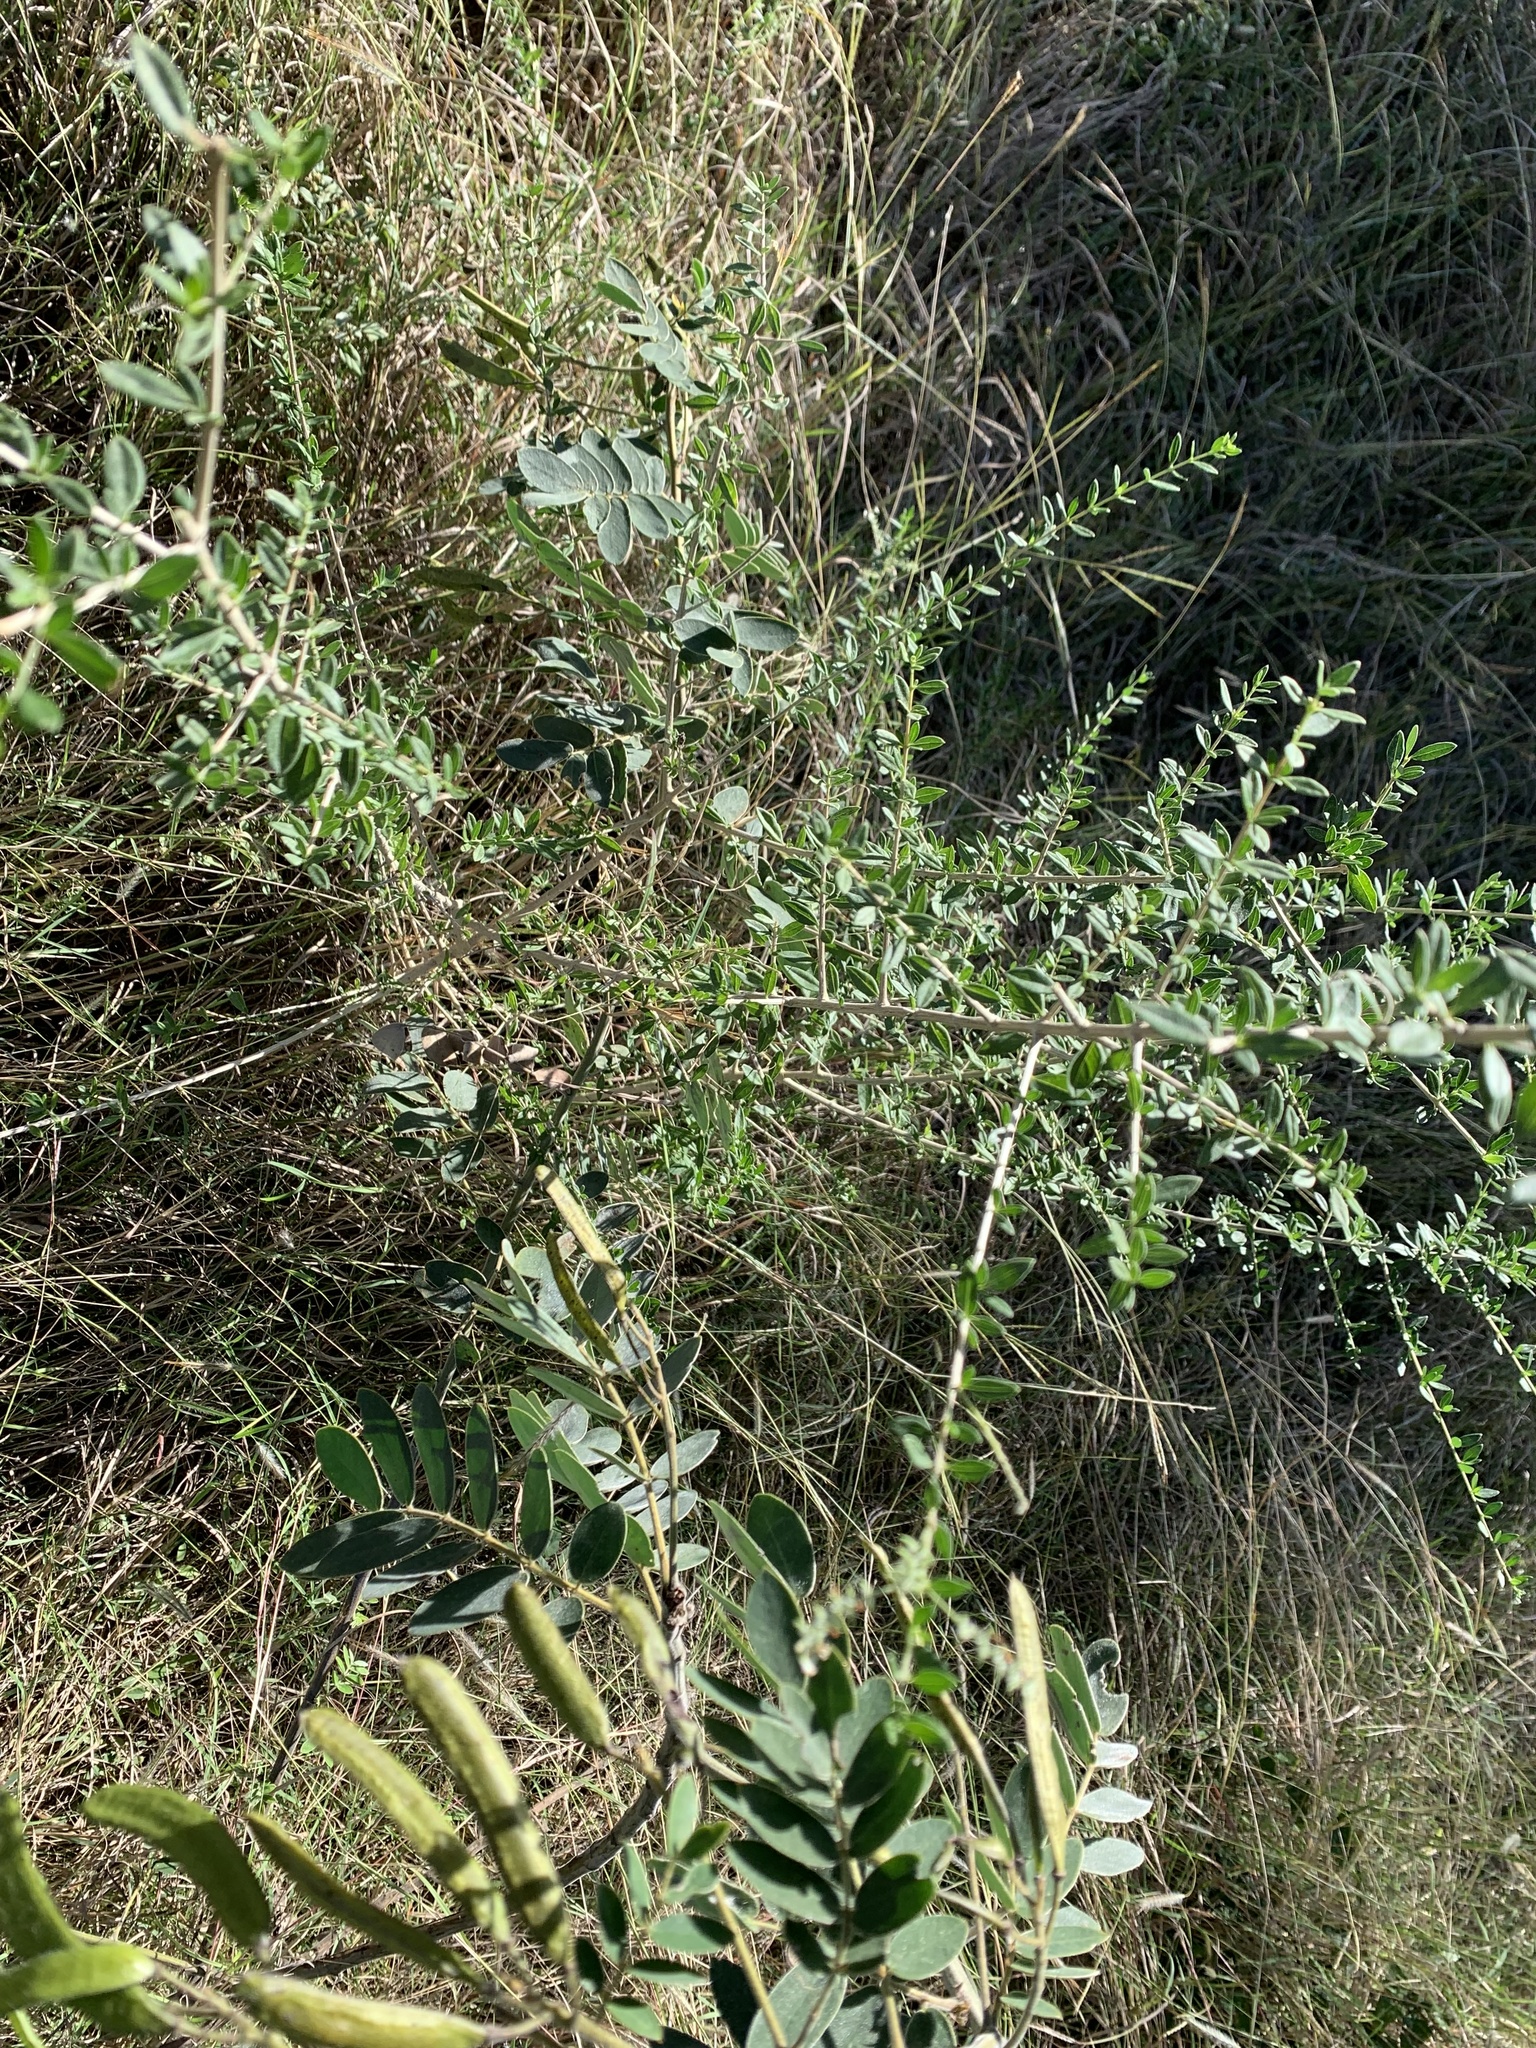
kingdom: Plantae
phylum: Tracheophyta
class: Magnoliopsida
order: Lamiales
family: Verbenaceae
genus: Aloysia
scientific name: Aloysia gratissima
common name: Common bee-brush
